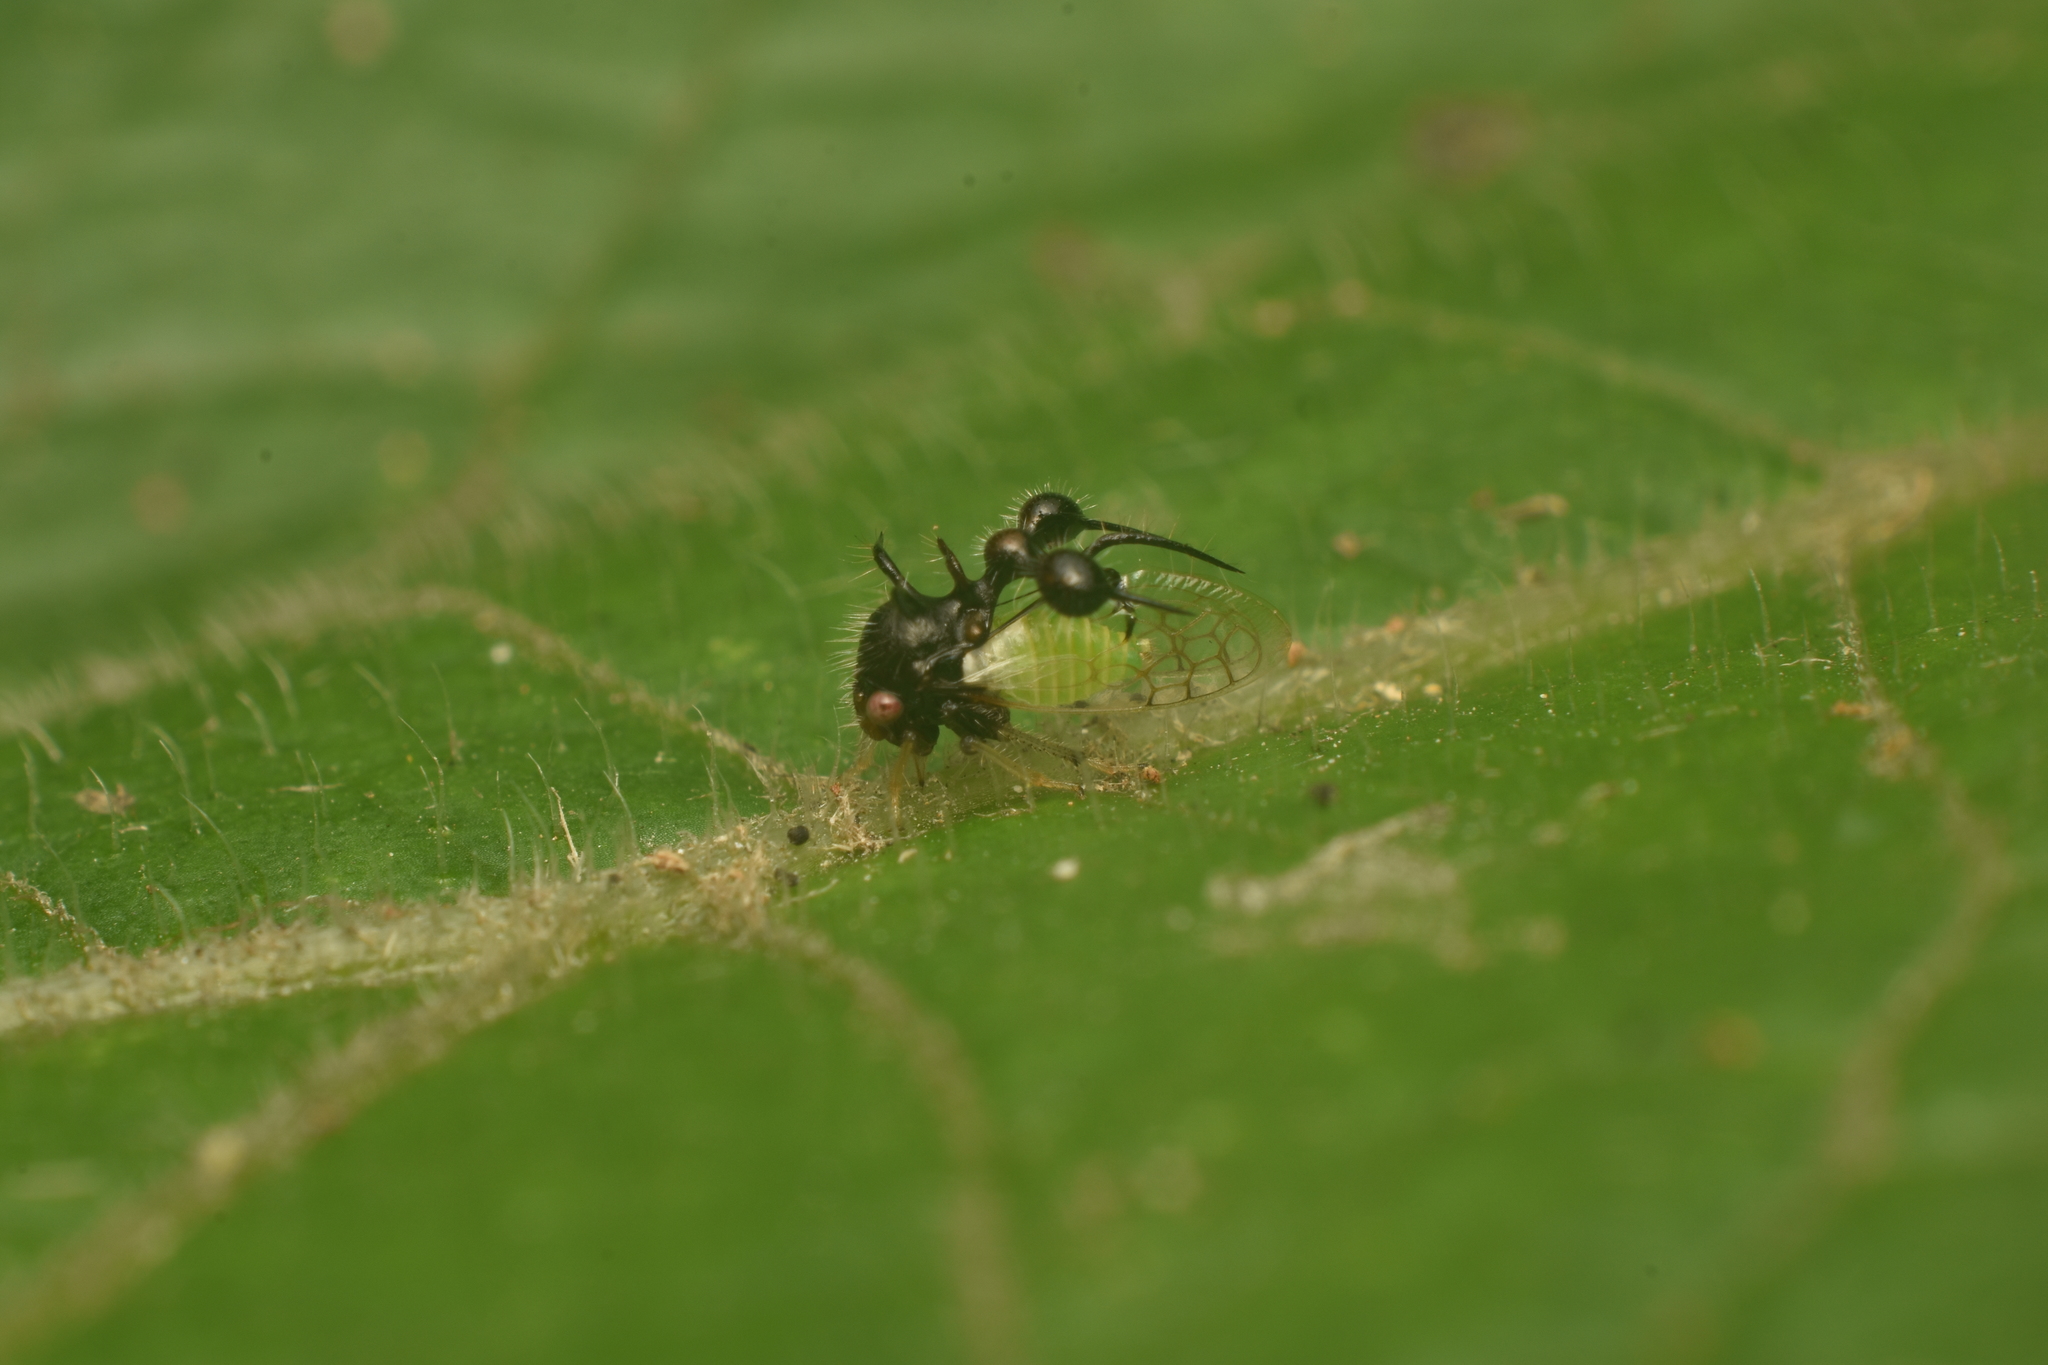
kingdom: Animalia
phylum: Arthropoda
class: Insecta
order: Hemiptera
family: Membracidae
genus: Cyphonia
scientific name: Cyphonia clavata
